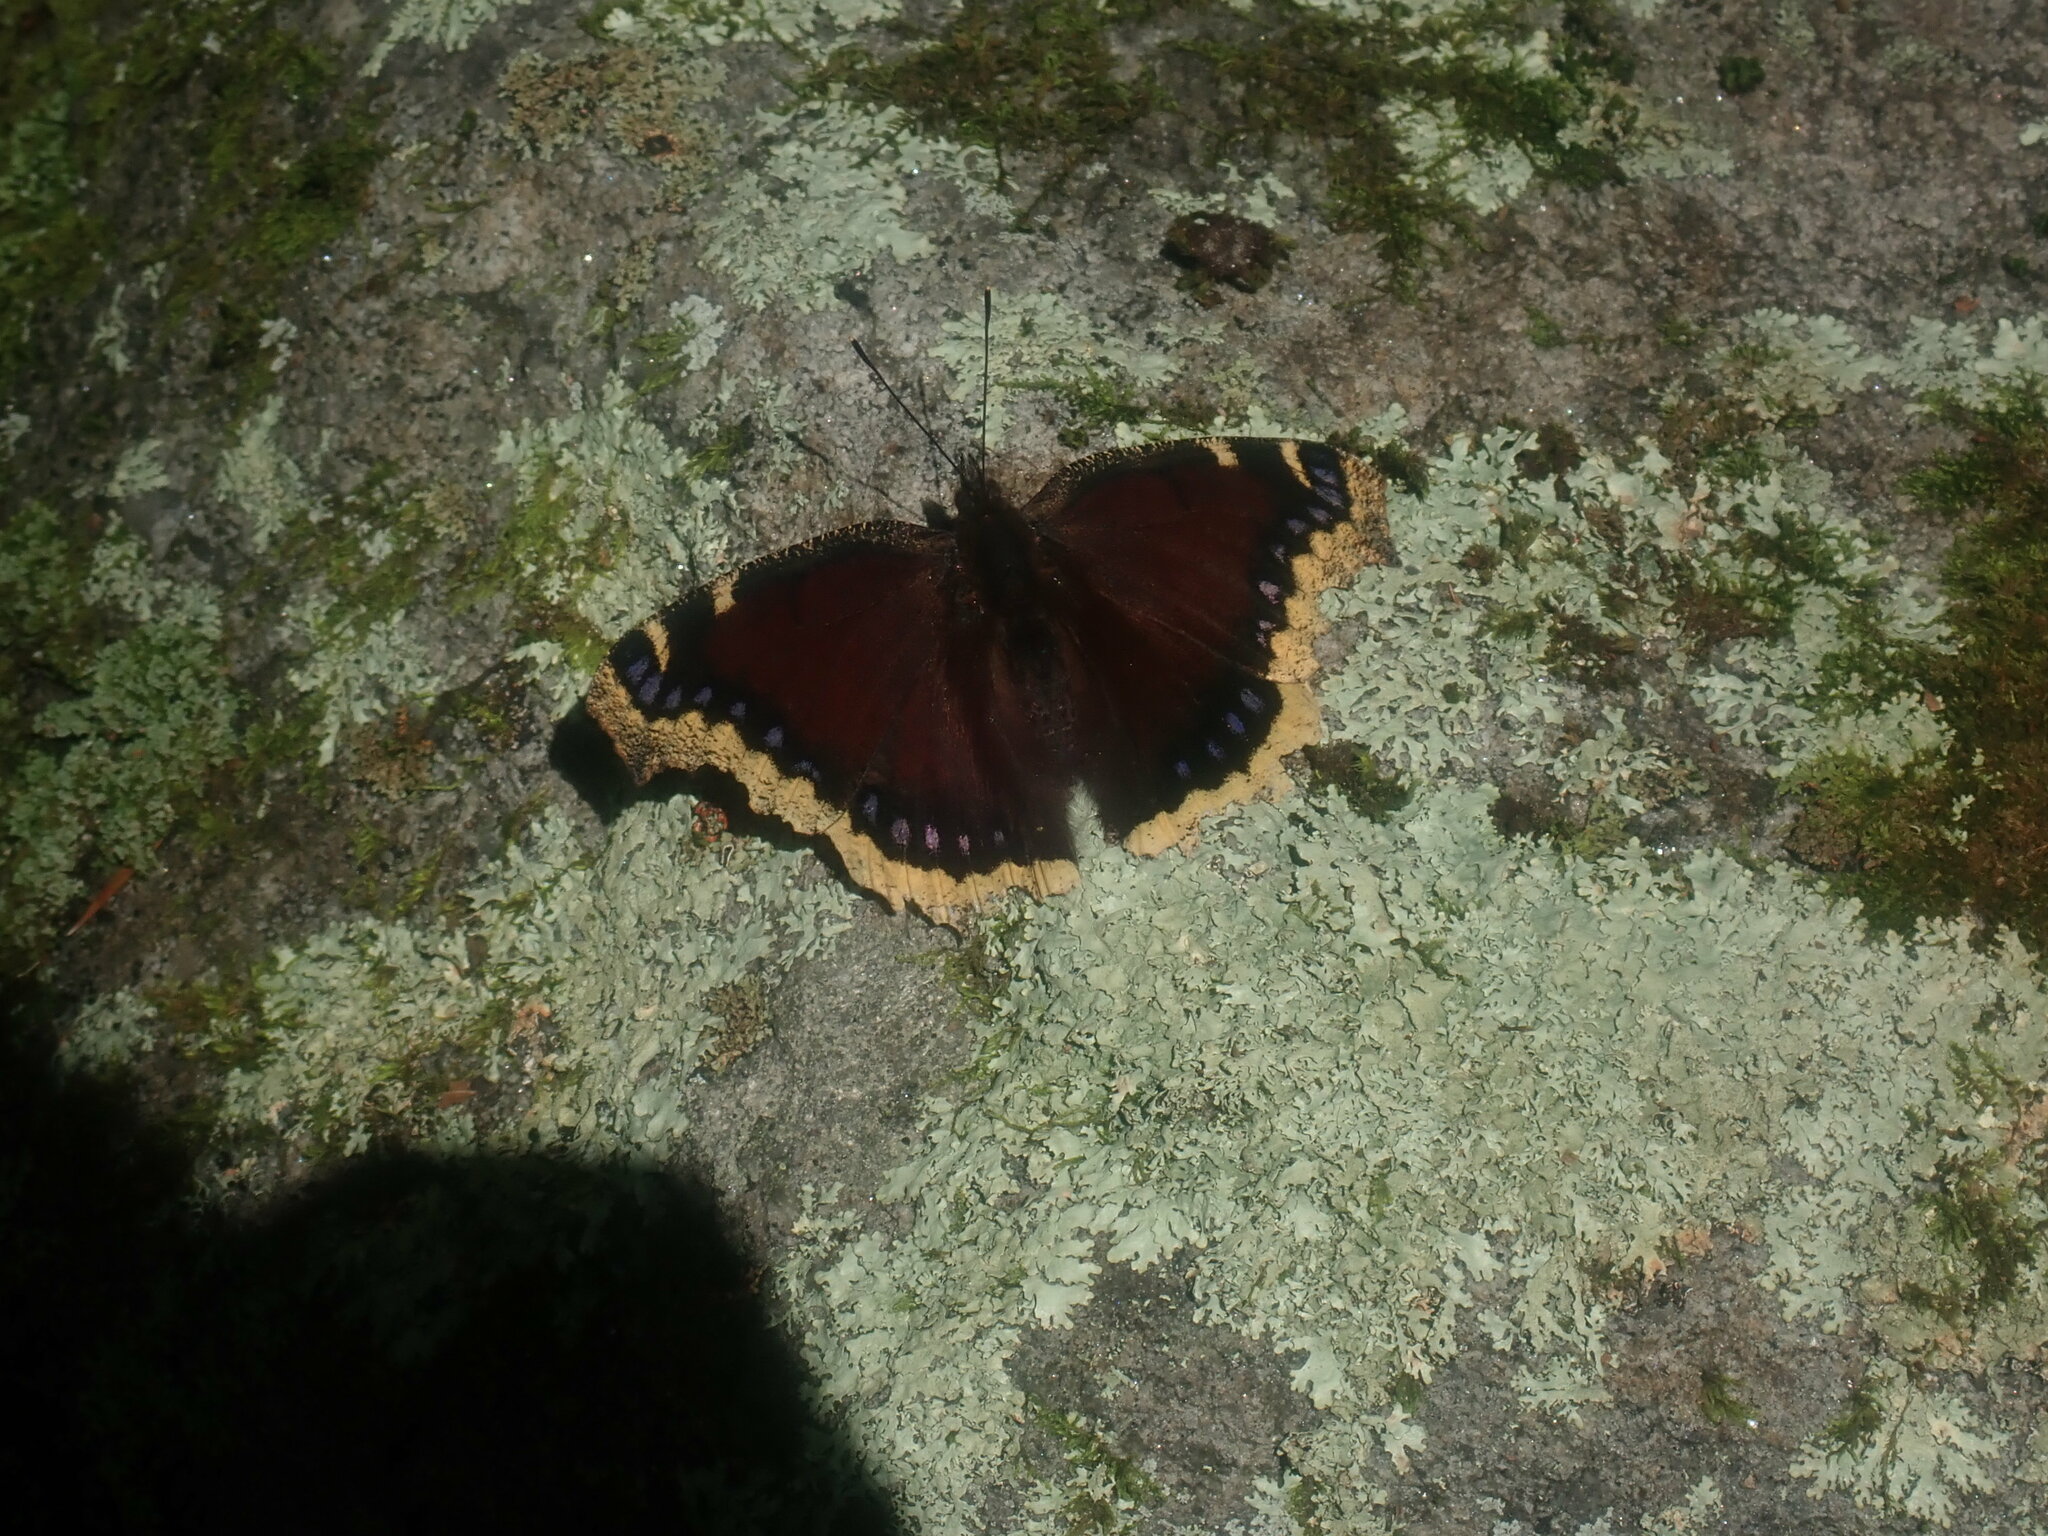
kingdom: Animalia
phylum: Arthropoda
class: Insecta
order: Lepidoptera
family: Nymphalidae
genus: Nymphalis
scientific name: Nymphalis antiopa
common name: Camberwell beauty
